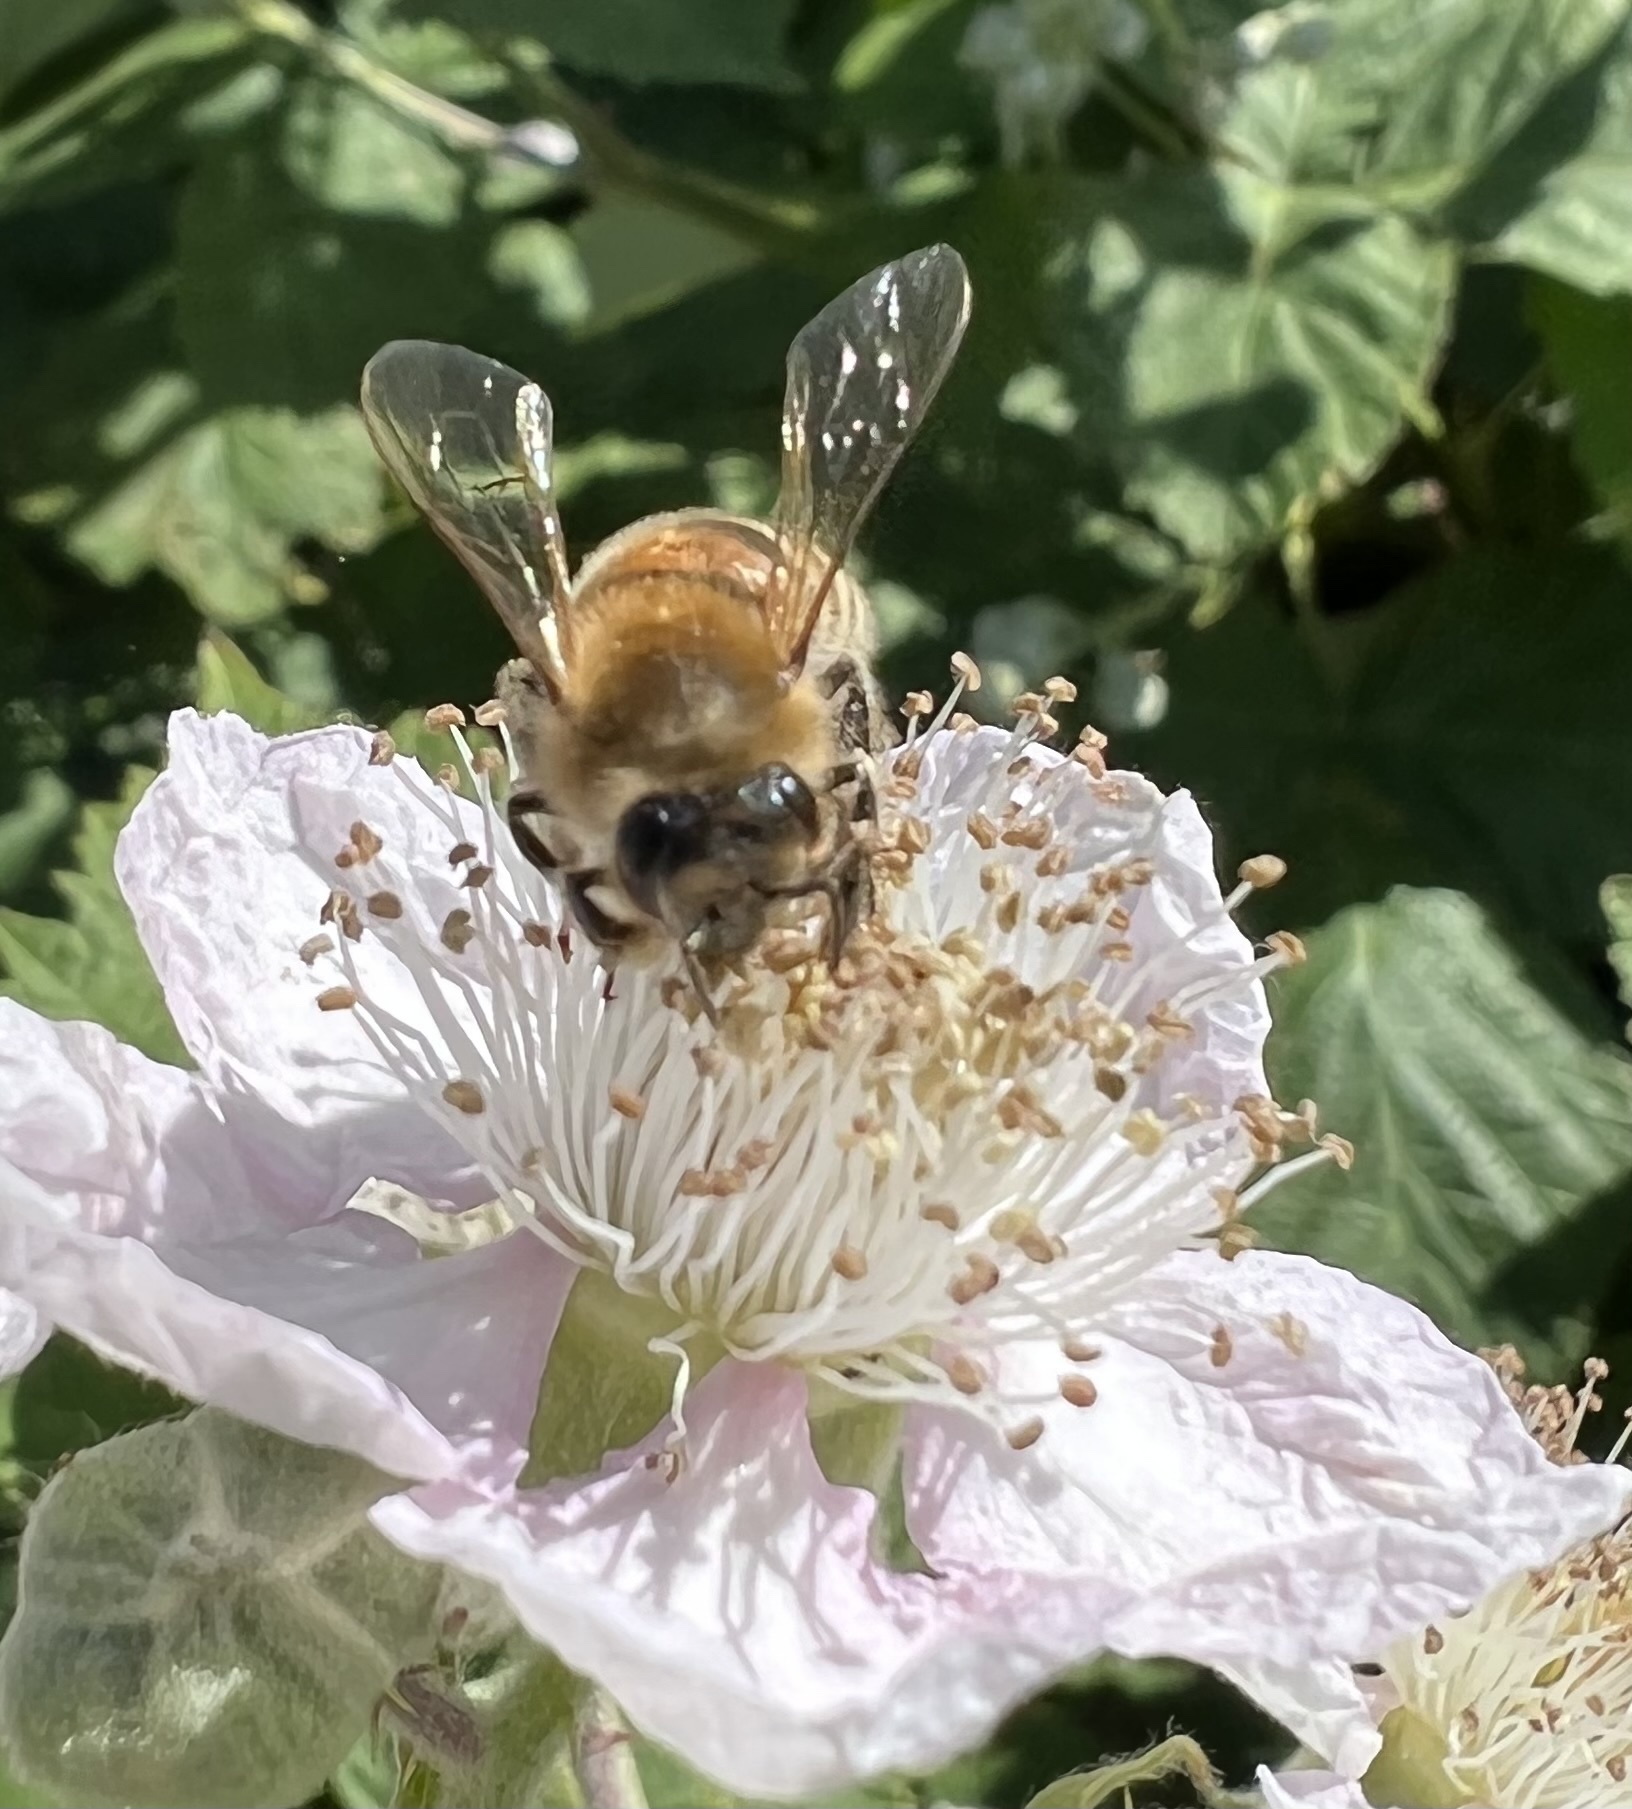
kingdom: Animalia
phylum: Arthropoda
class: Insecta
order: Hymenoptera
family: Apidae
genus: Apis
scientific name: Apis mellifera
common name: Honey bee
